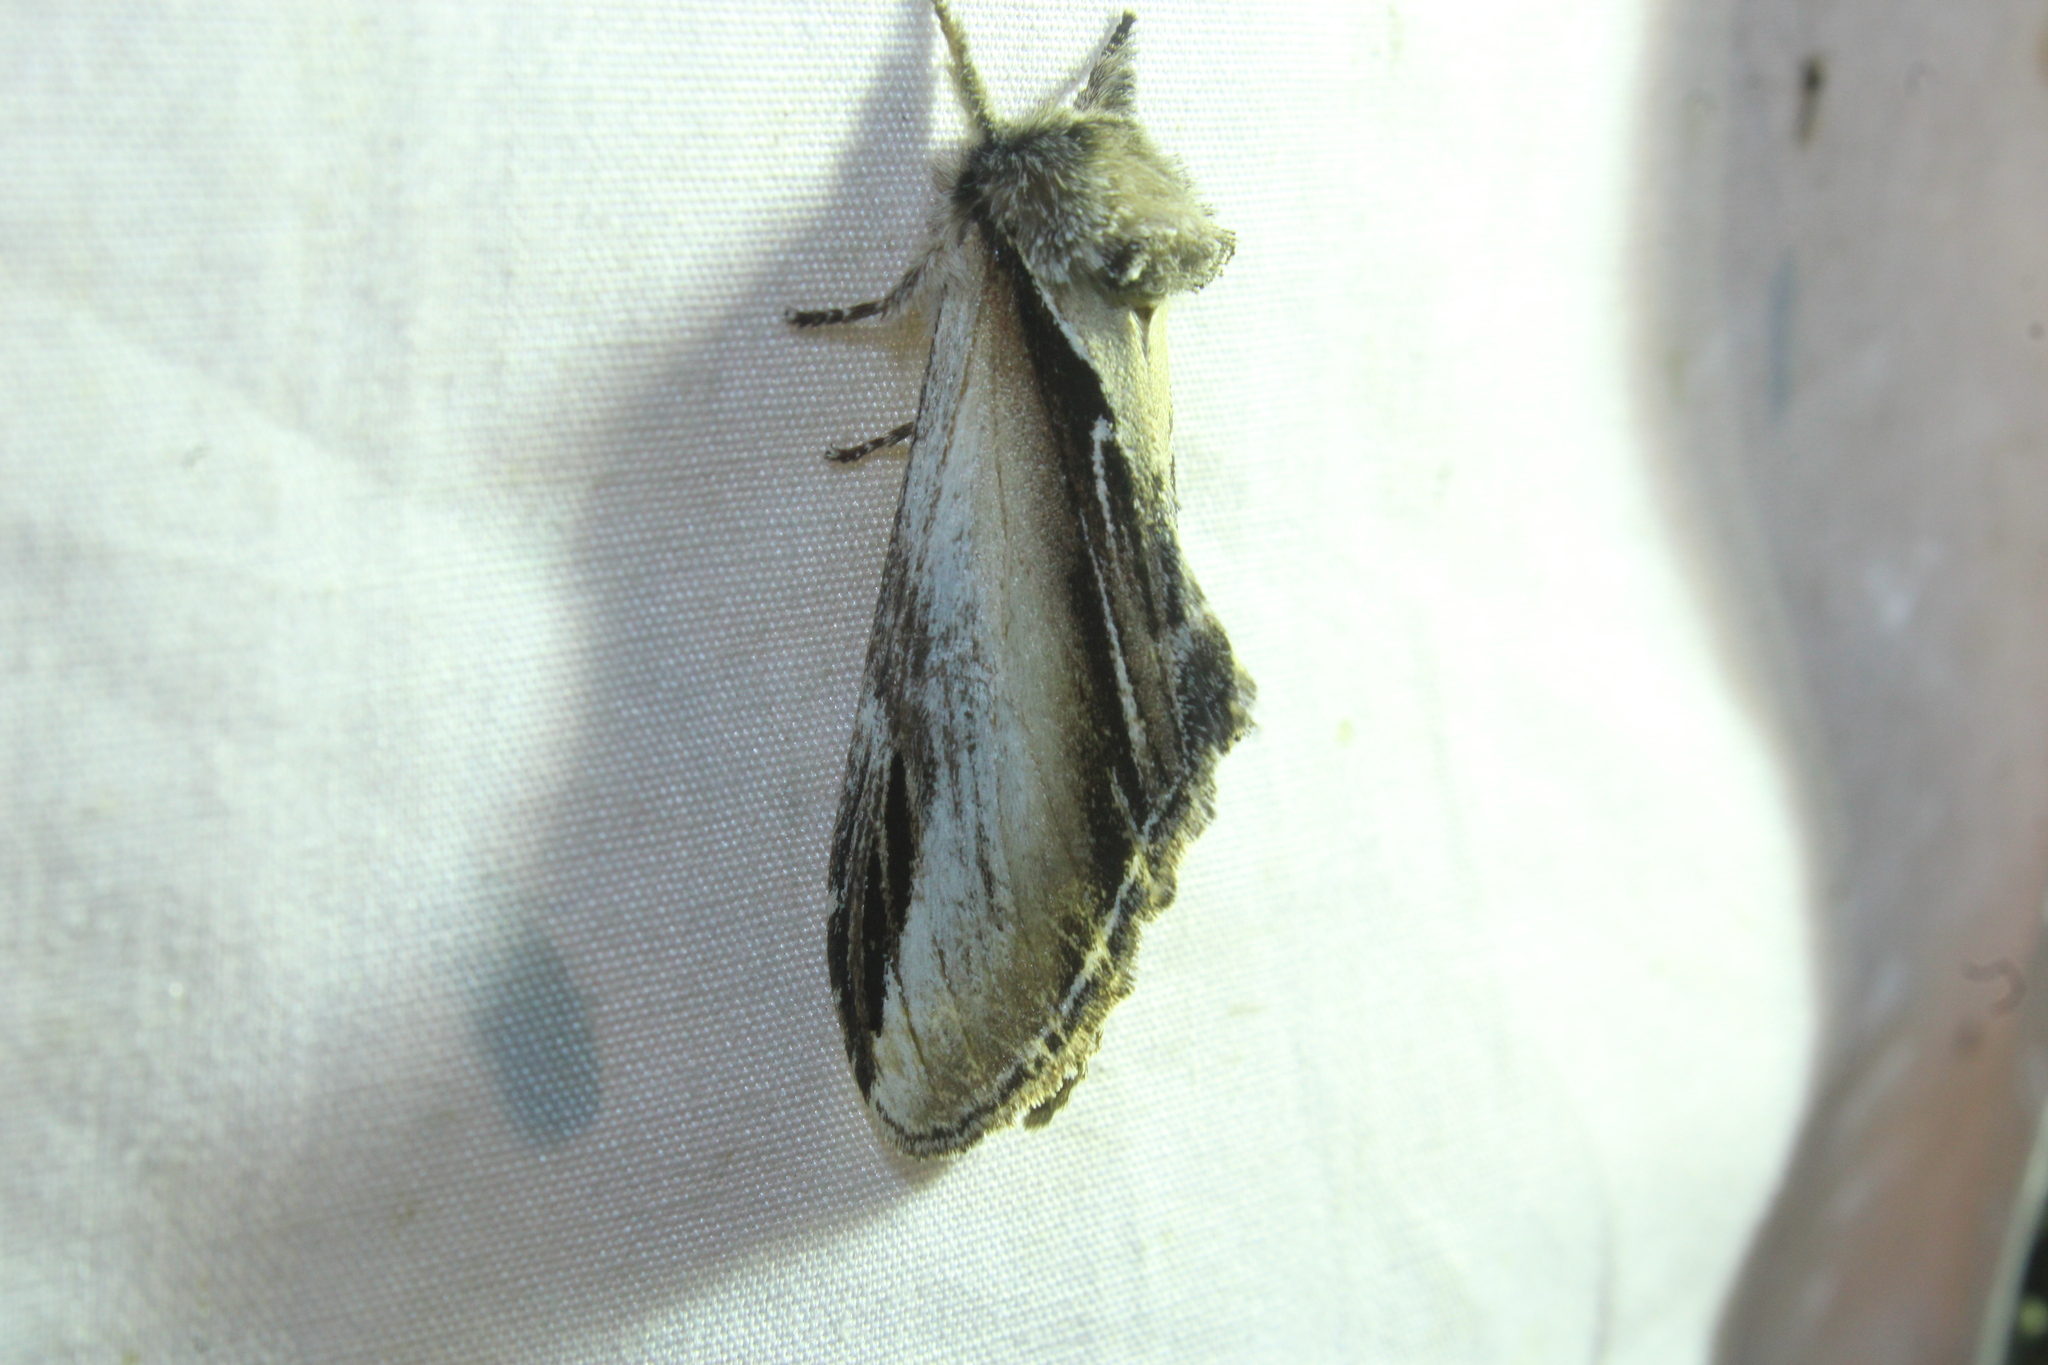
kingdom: Animalia
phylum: Arthropoda
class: Insecta
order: Lepidoptera
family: Notodontidae
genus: Pheosia
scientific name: Pheosia rimosa
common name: Black-rimmed prominent
